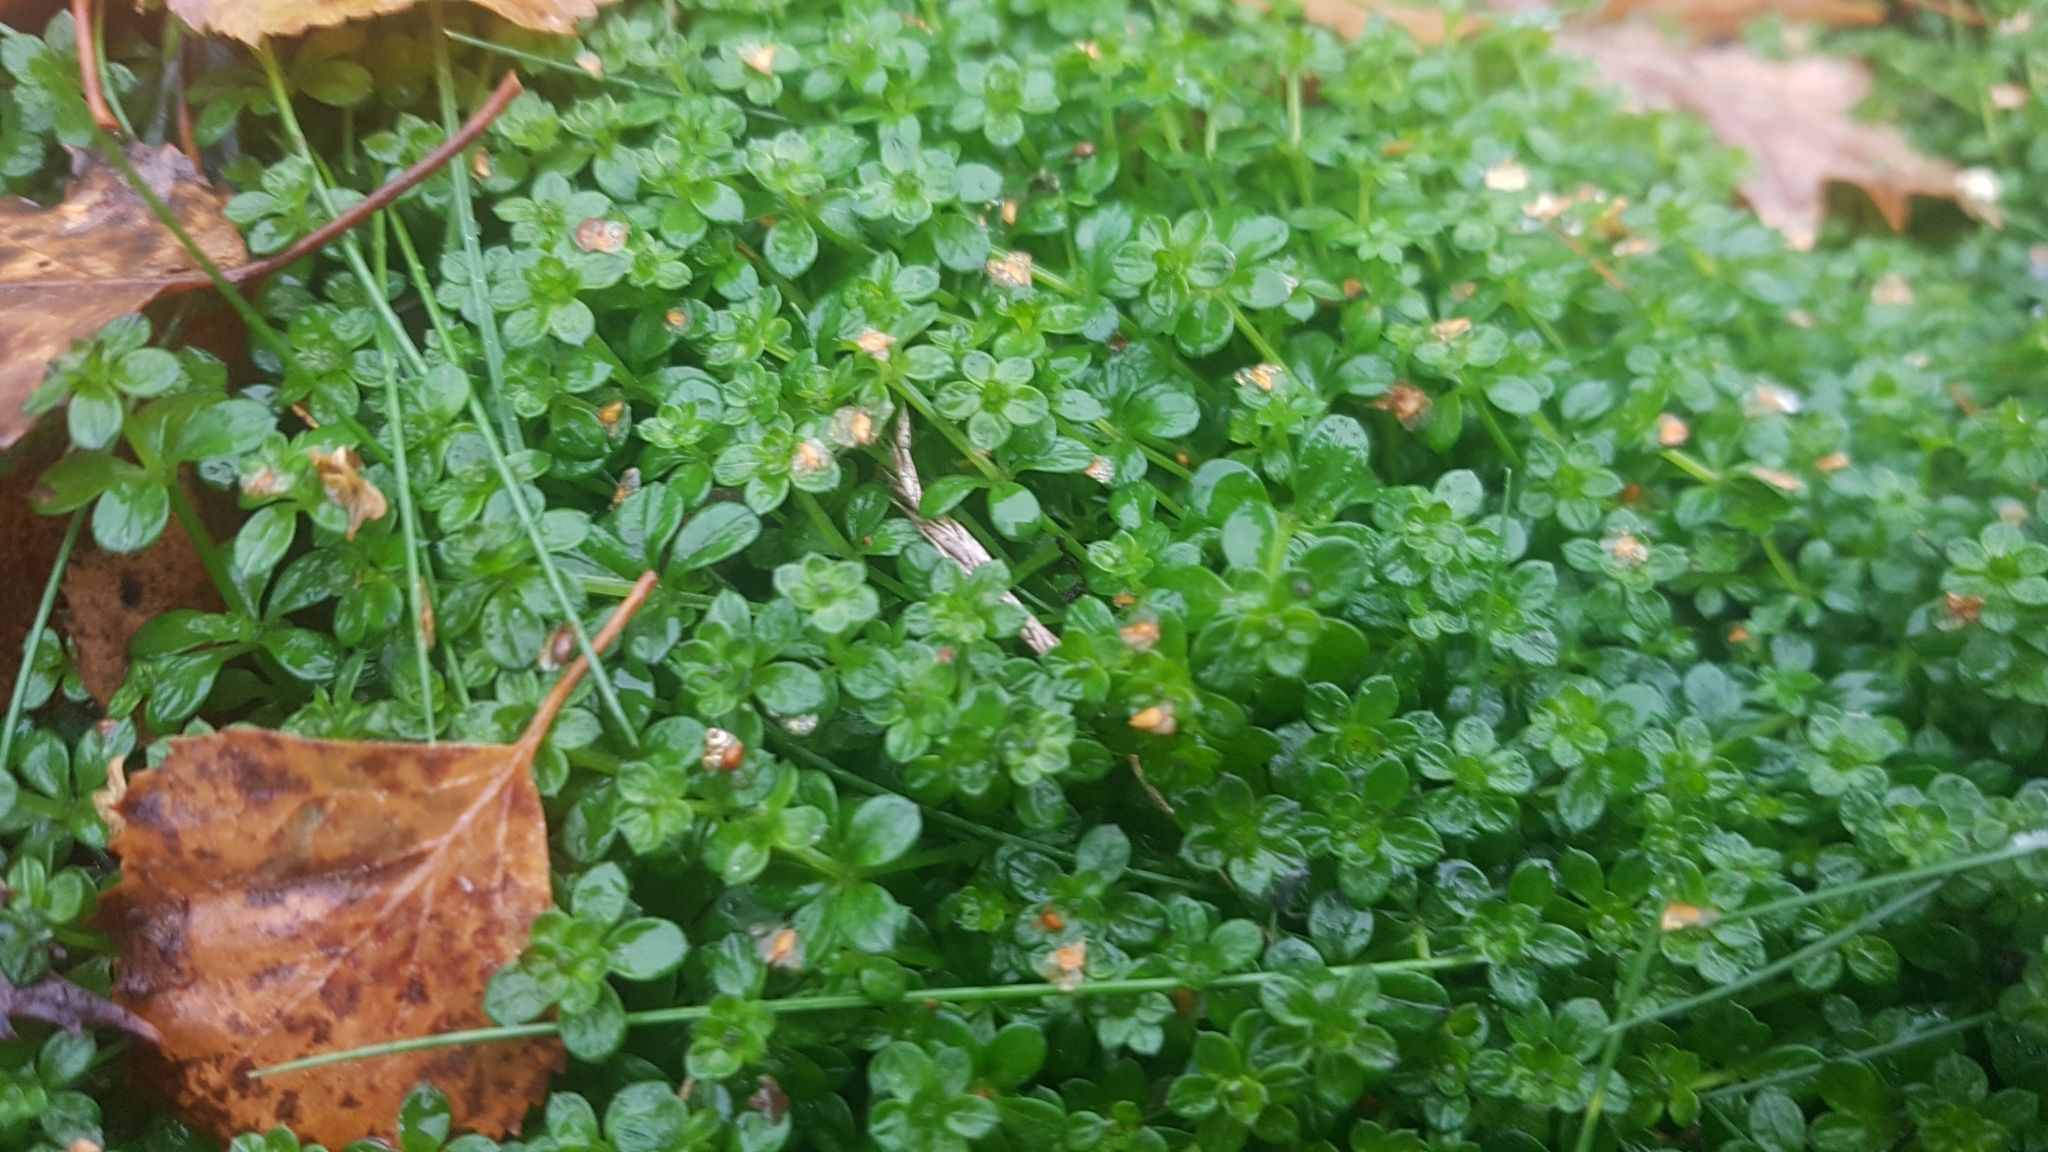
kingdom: Plantae
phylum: Tracheophyta
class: Magnoliopsida
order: Gentianales
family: Rubiaceae
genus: Galium
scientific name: Galium saxatile
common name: Heath bedstraw
